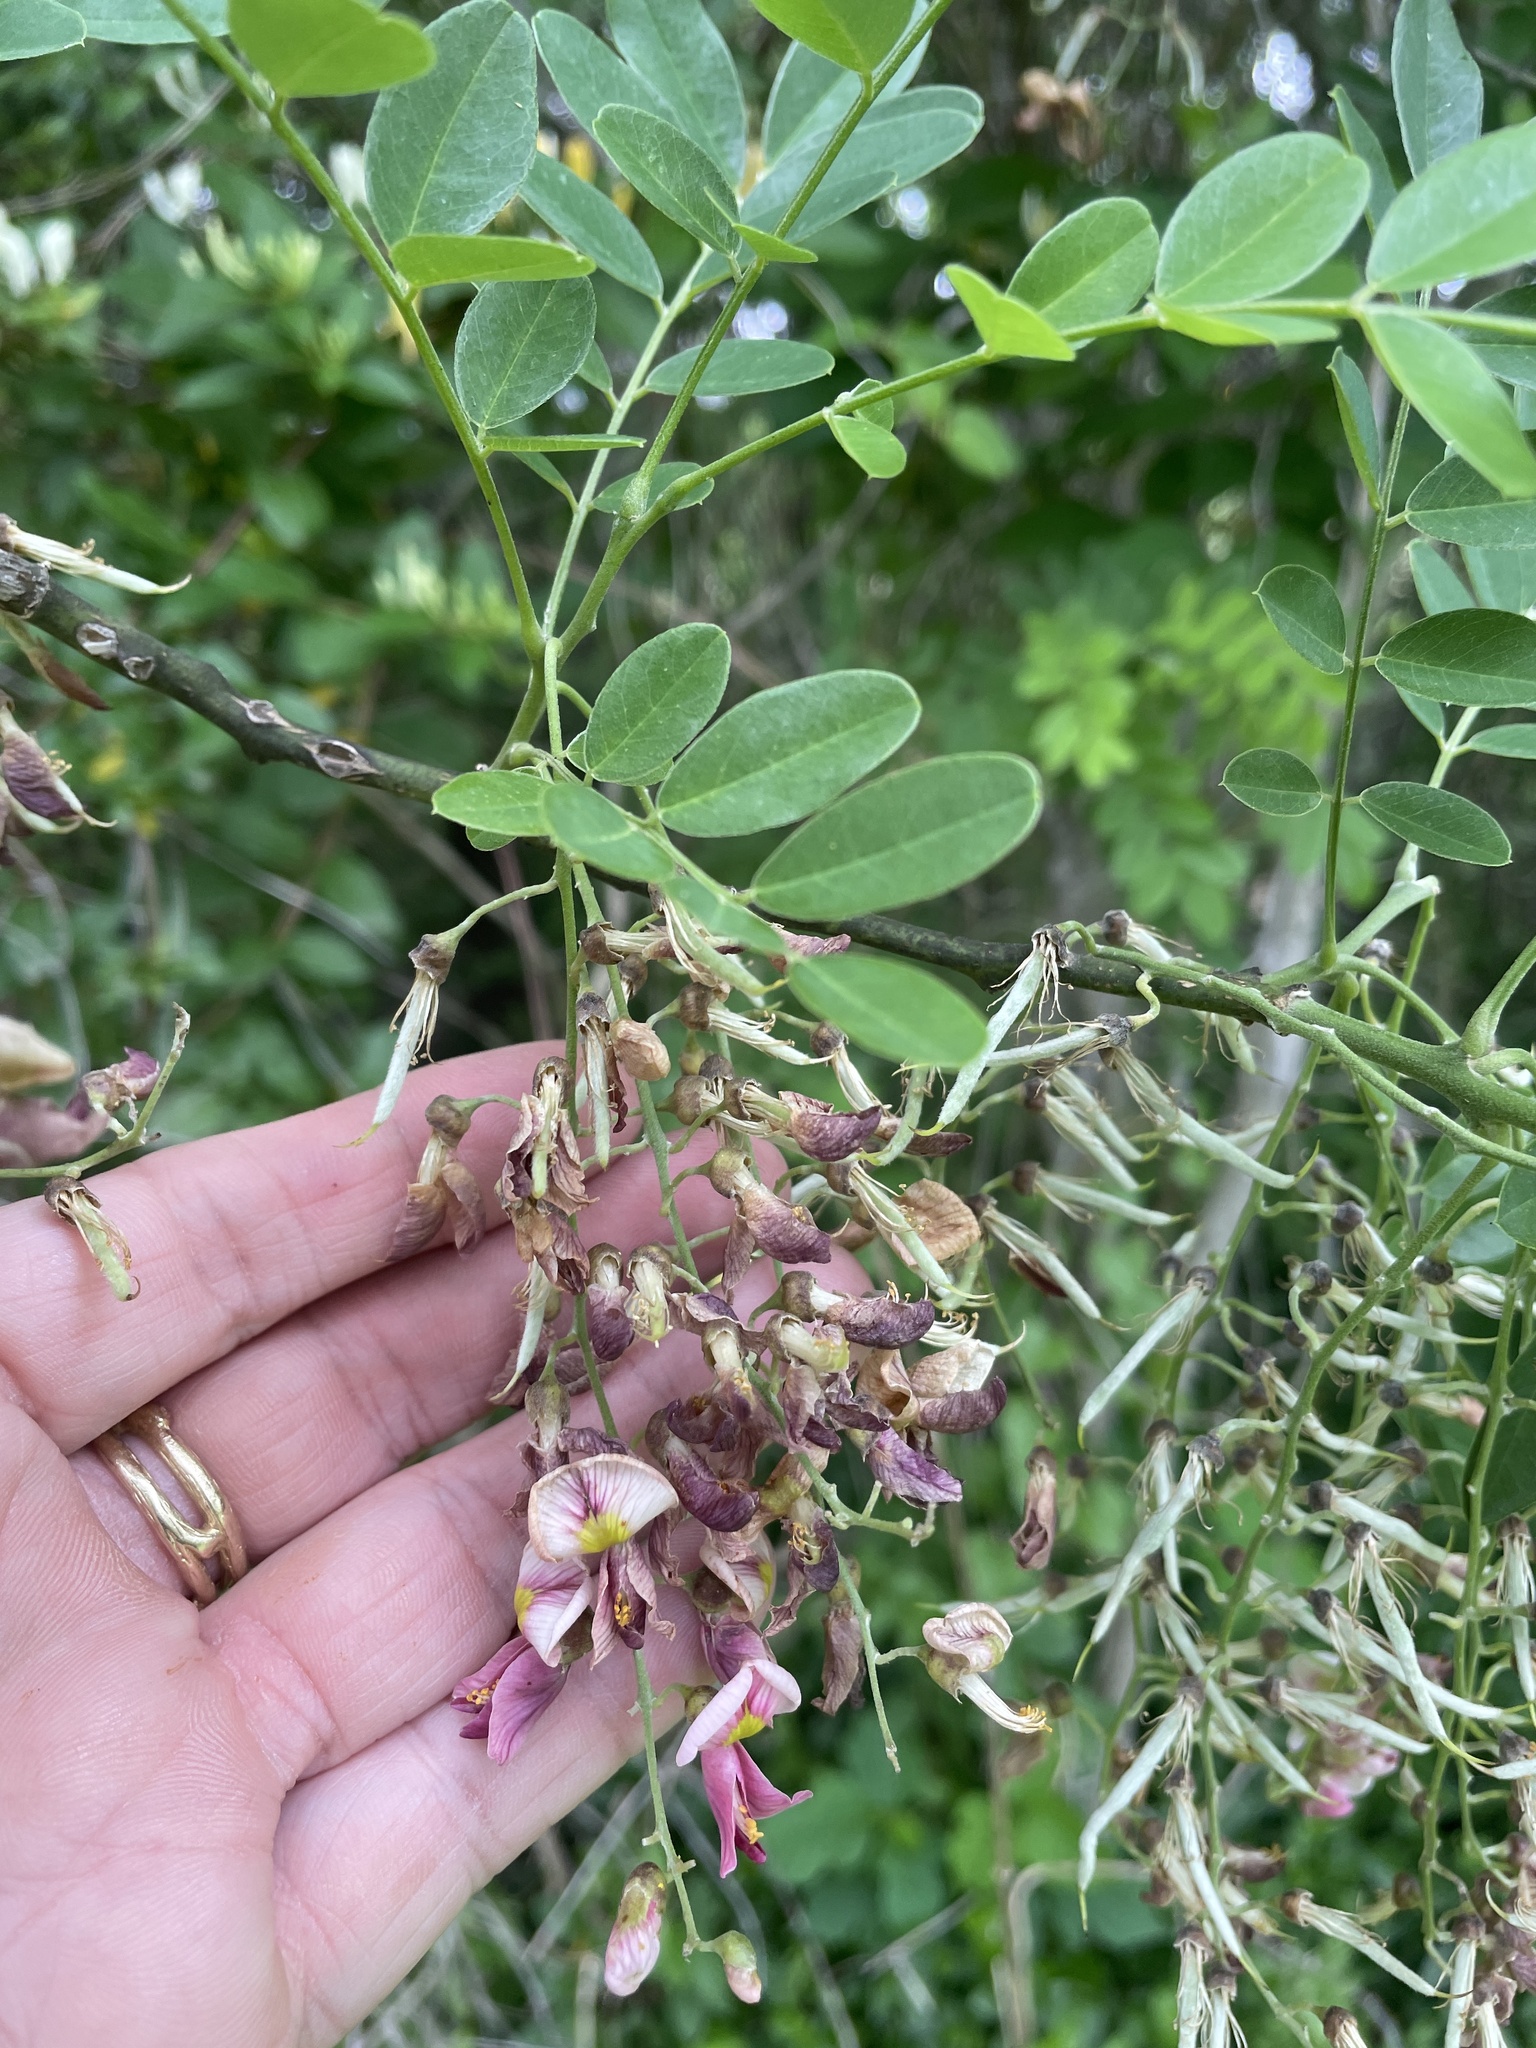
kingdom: Plantae
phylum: Tracheophyta
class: Magnoliopsida
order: Fabales
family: Fabaceae
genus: Styphnolobium
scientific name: Styphnolobium affine
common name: Texas sophora
